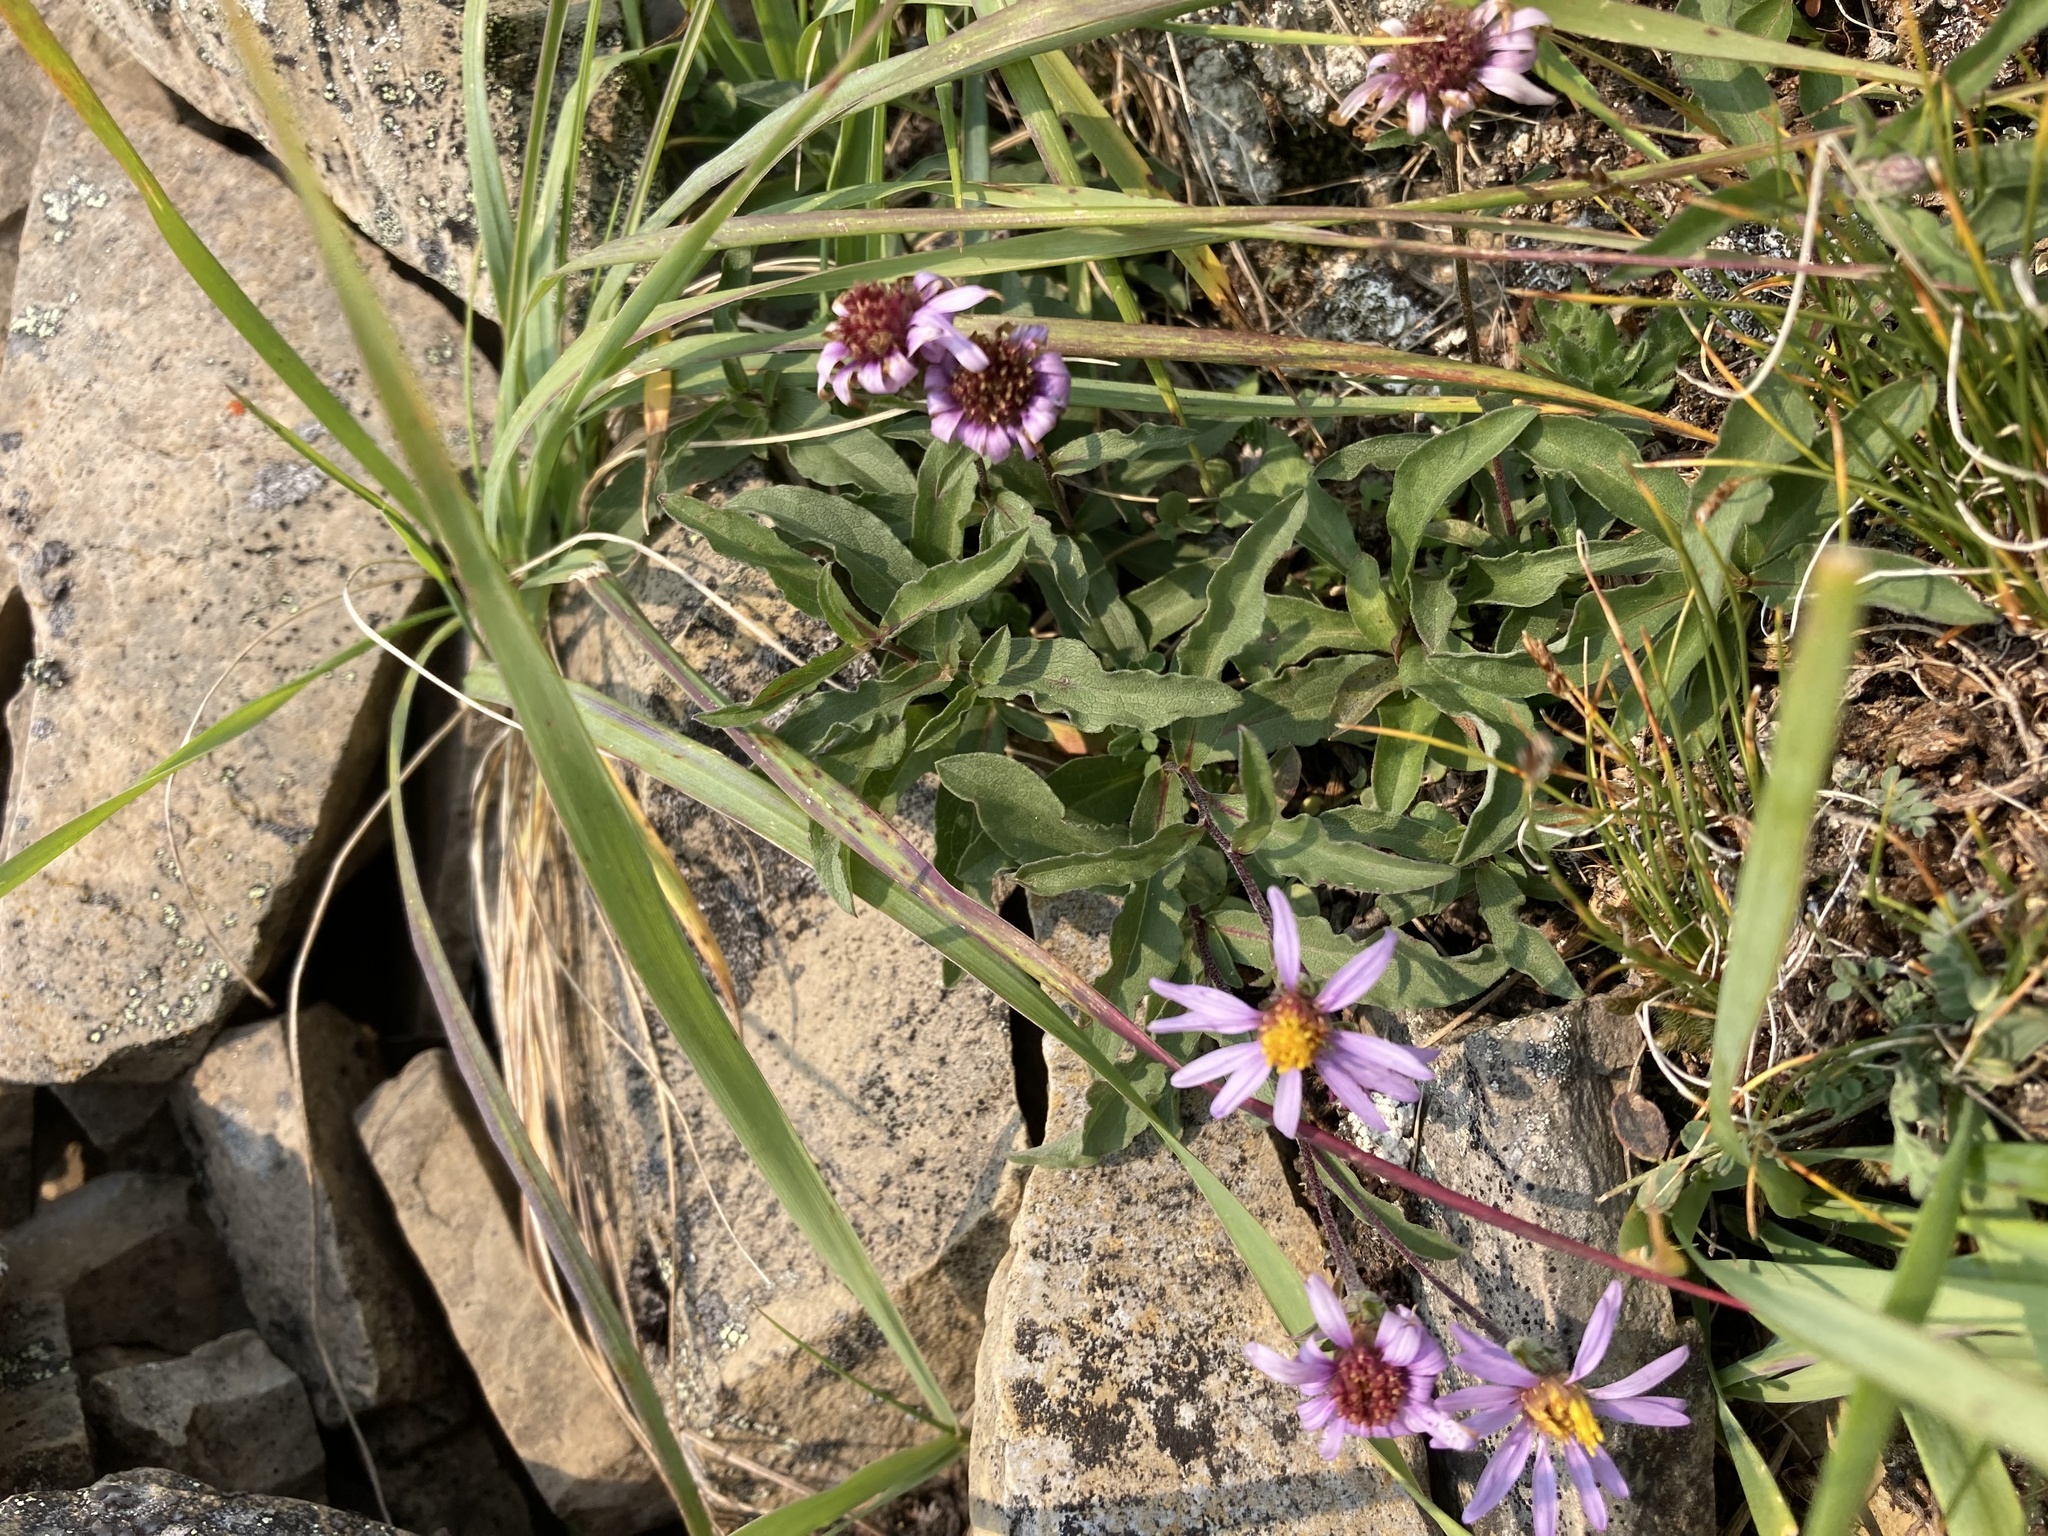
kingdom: Plantae
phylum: Tracheophyta
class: Magnoliopsida
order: Asterales
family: Asteraceae
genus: Eurybia
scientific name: Eurybia sibirica
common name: Arctic aster
